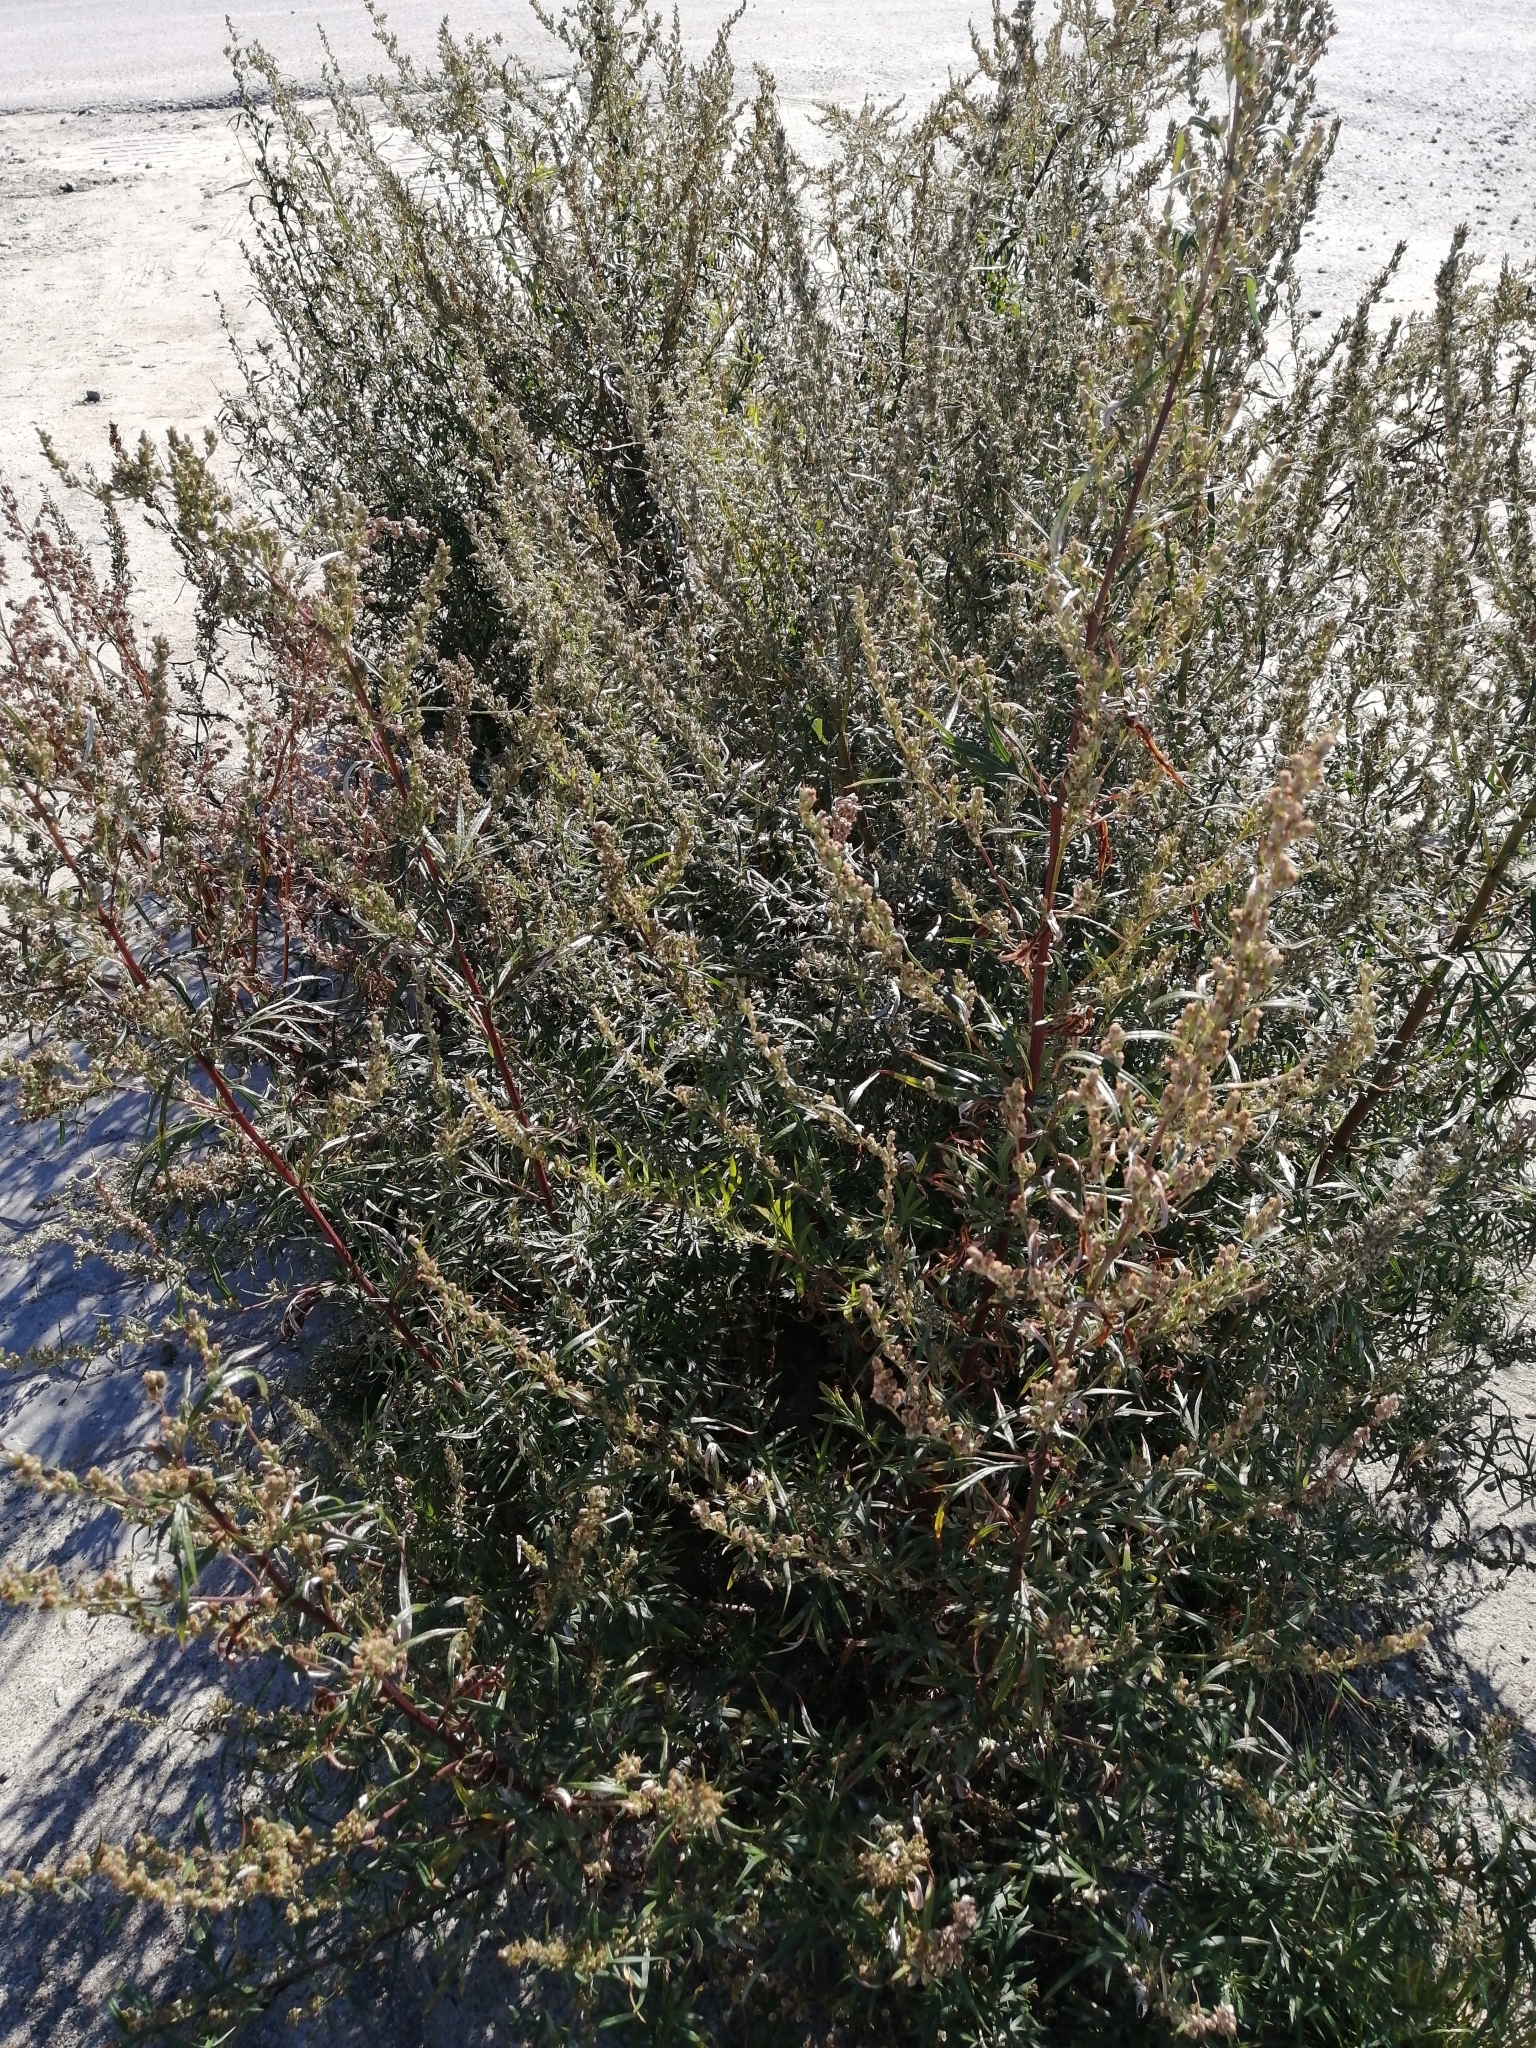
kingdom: Plantae
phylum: Tracheophyta
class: Magnoliopsida
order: Asterales
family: Asteraceae
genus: Artemisia
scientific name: Artemisia vulgaris
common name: Mugwort
